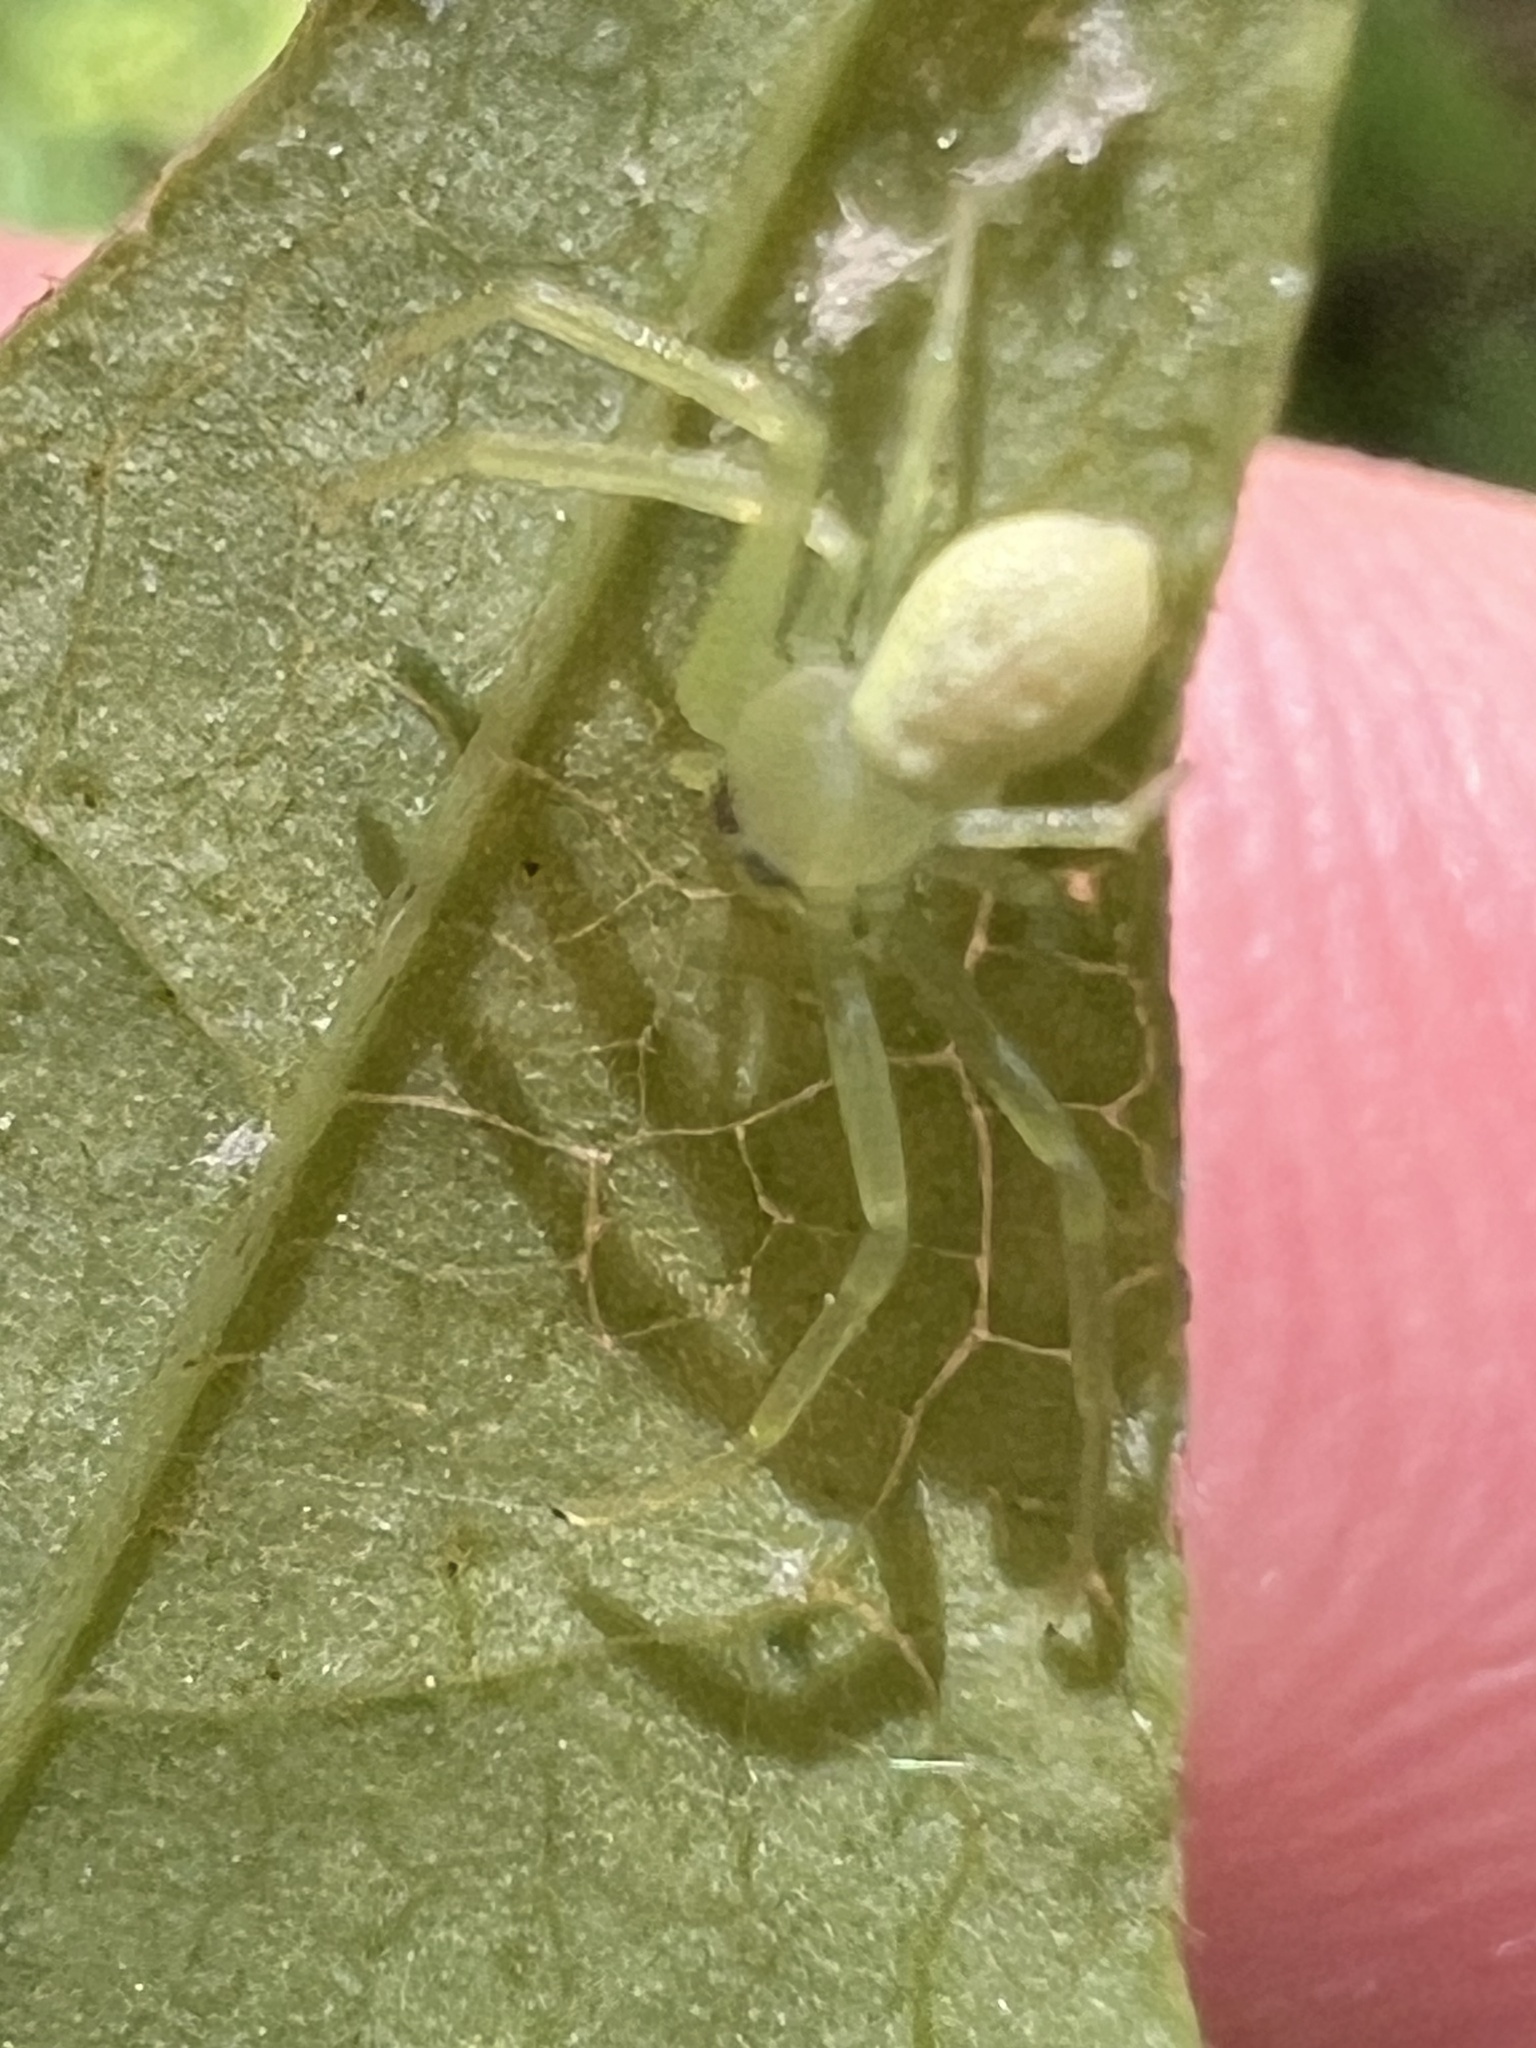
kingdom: Animalia
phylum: Arthropoda
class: Arachnida
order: Araneae
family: Thomisidae
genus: Misumessus
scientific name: Misumessus oblongus
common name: American green crab spider
